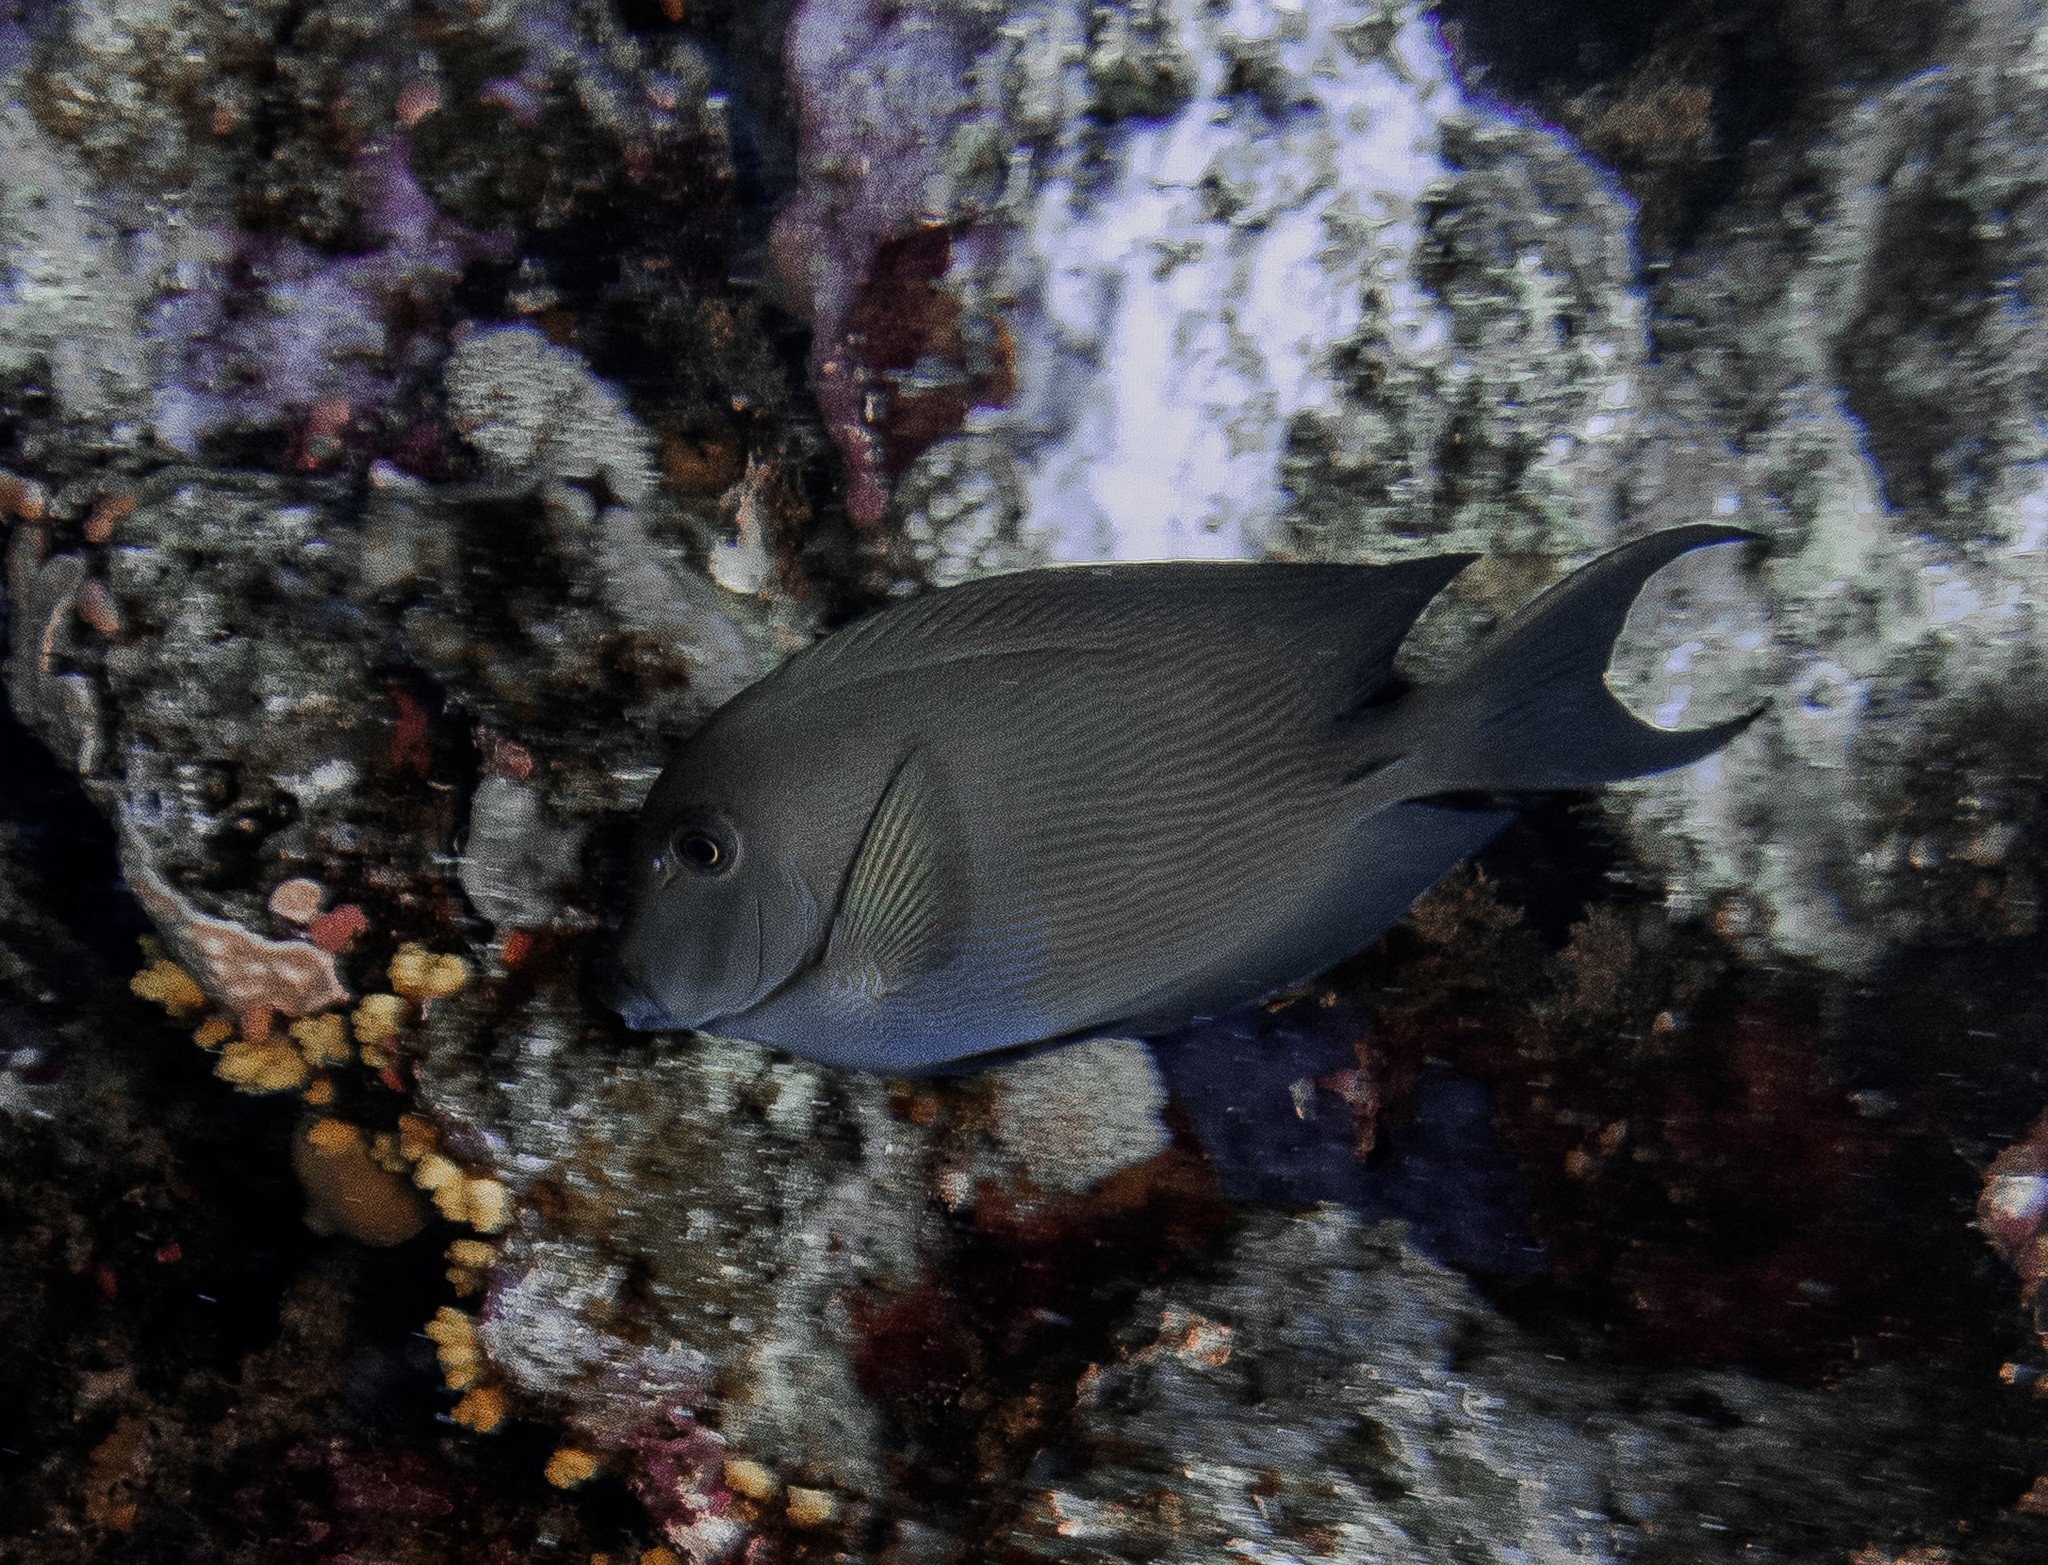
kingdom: Animalia
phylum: Chordata
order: Perciformes
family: Acanthuridae
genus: Ctenochaetus
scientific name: Ctenochaetus striatus
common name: Bristle-toothed surgeonfish
